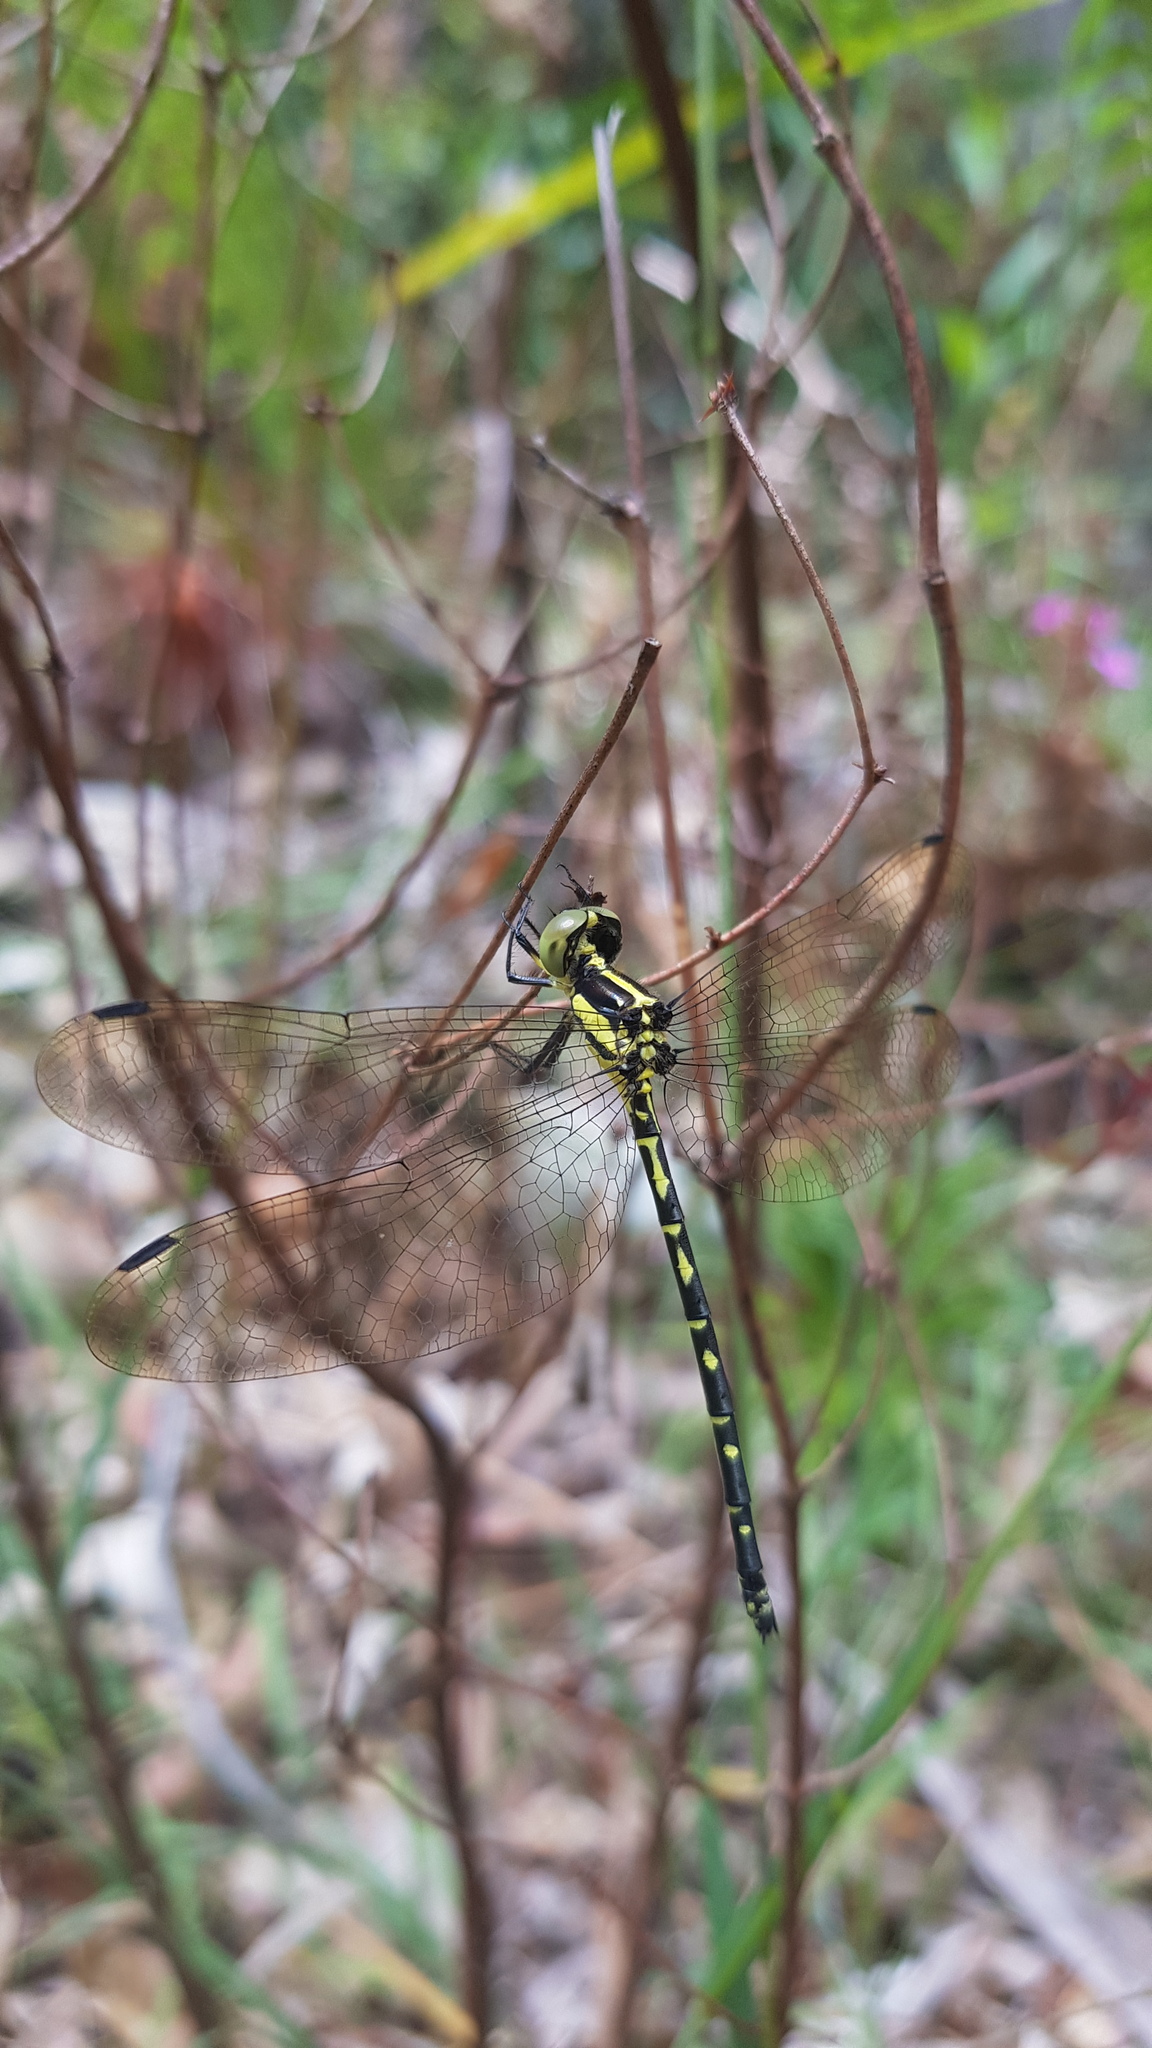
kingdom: Animalia
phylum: Arthropoda
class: Insecta
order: Odonata
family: Synthemistidae
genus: Choristhemis
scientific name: Choristhemis flavoterminata
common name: Yellow-tipped tigertail
